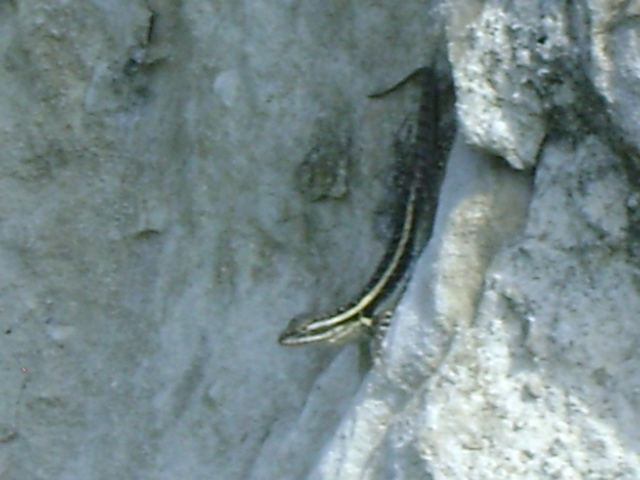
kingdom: Animalia
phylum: Chordata
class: Squamata
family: Phrynosomatidae
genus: Sceloporus
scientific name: Sceloporus variabilis
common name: Rosebelly lizard
